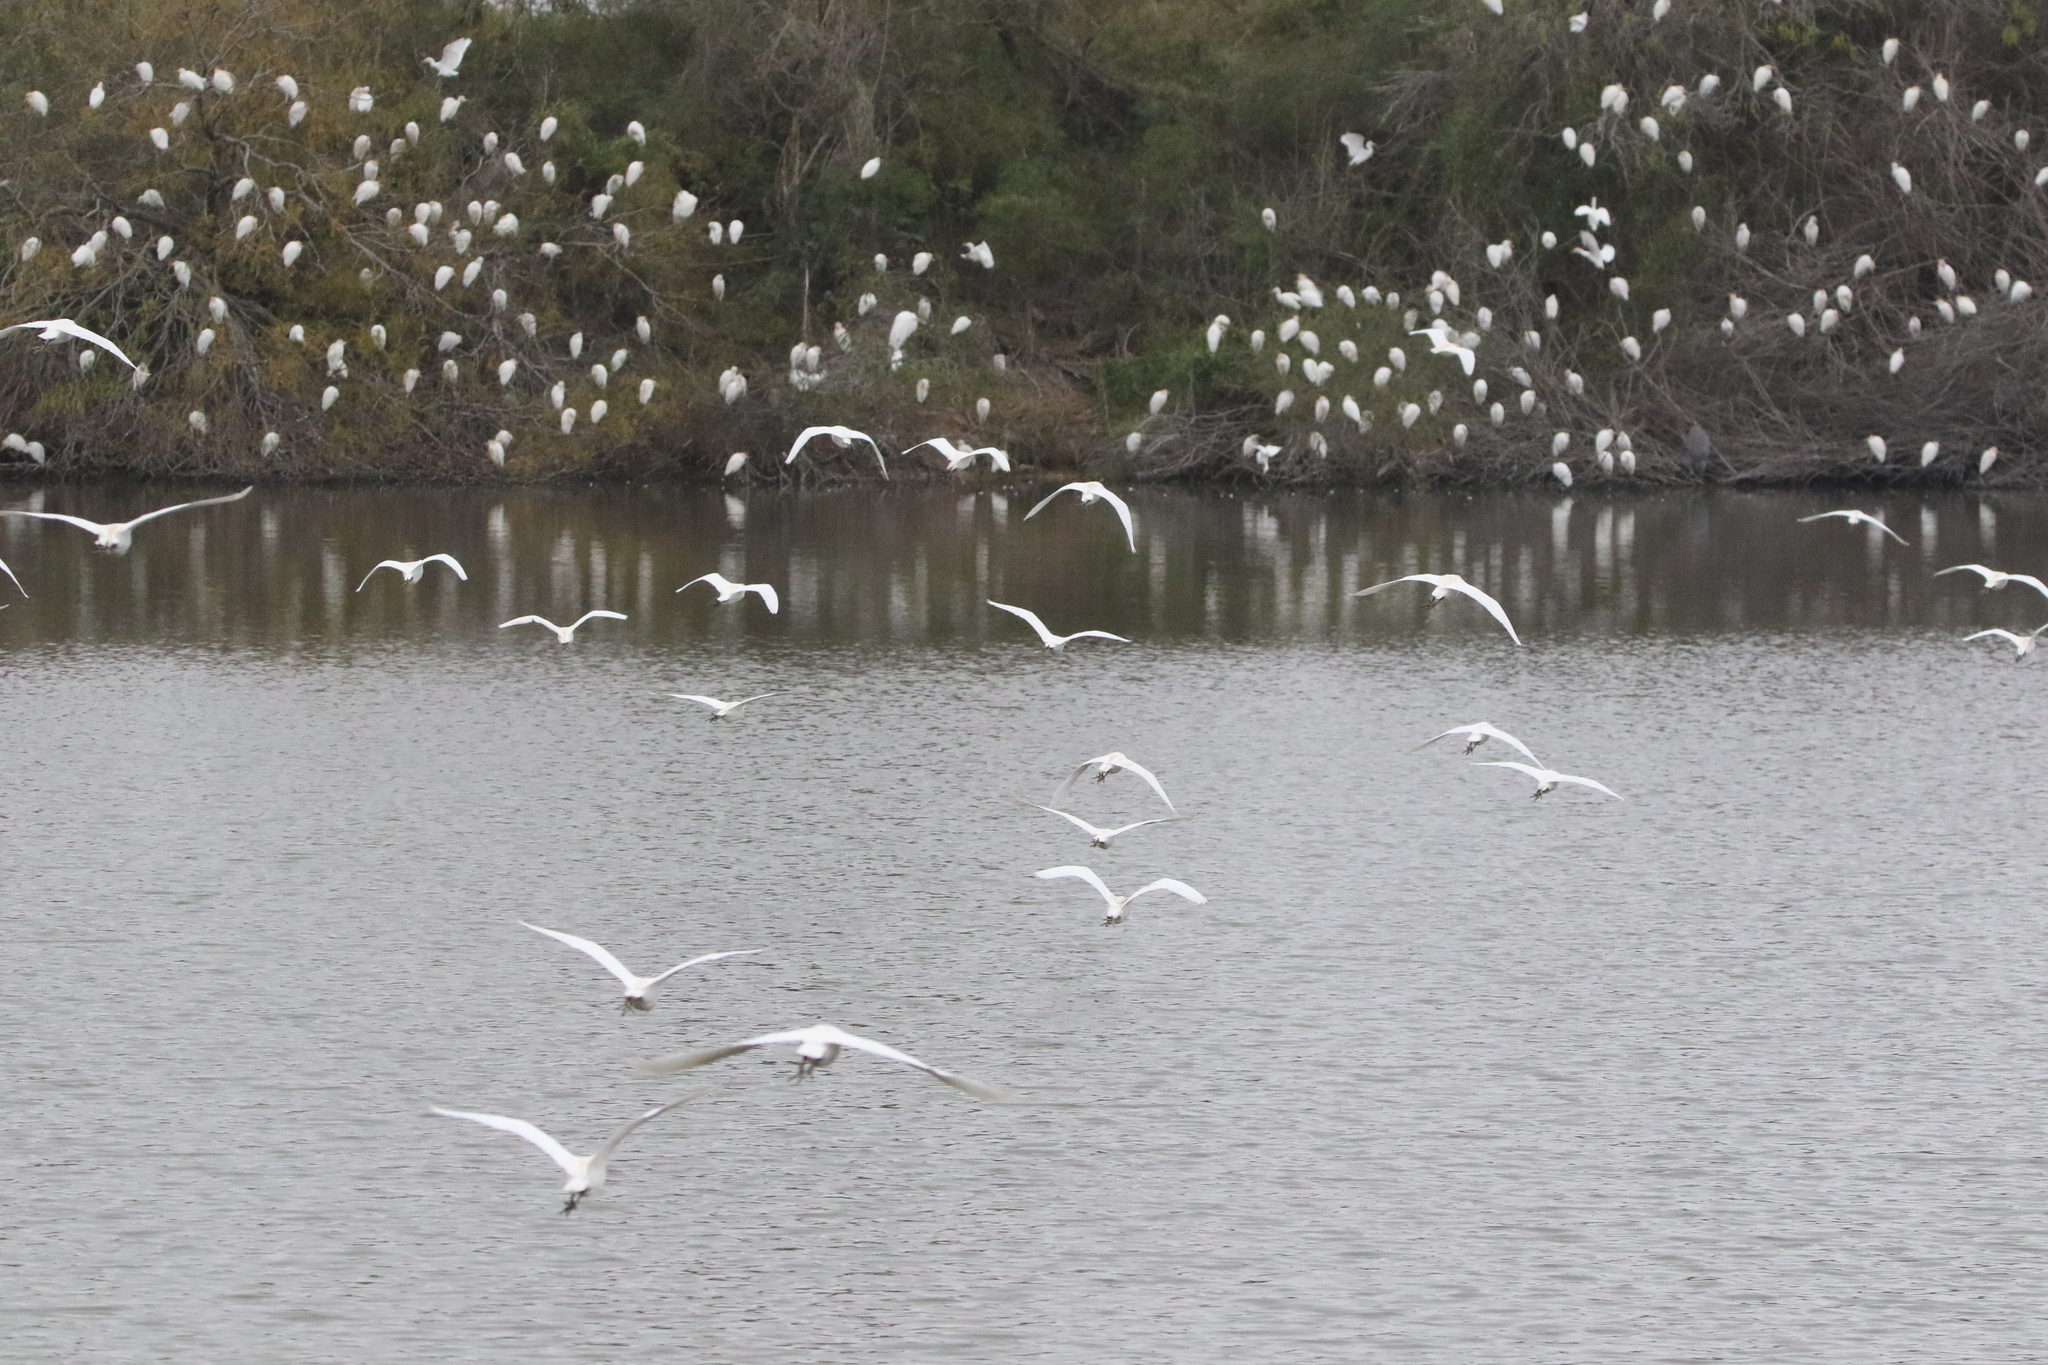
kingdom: Animalia
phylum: Chordata
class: Aves
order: Pelecaniformes
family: Ardeidae
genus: Bubulcus
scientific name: Bubulcus ibis
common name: Cattle egret
